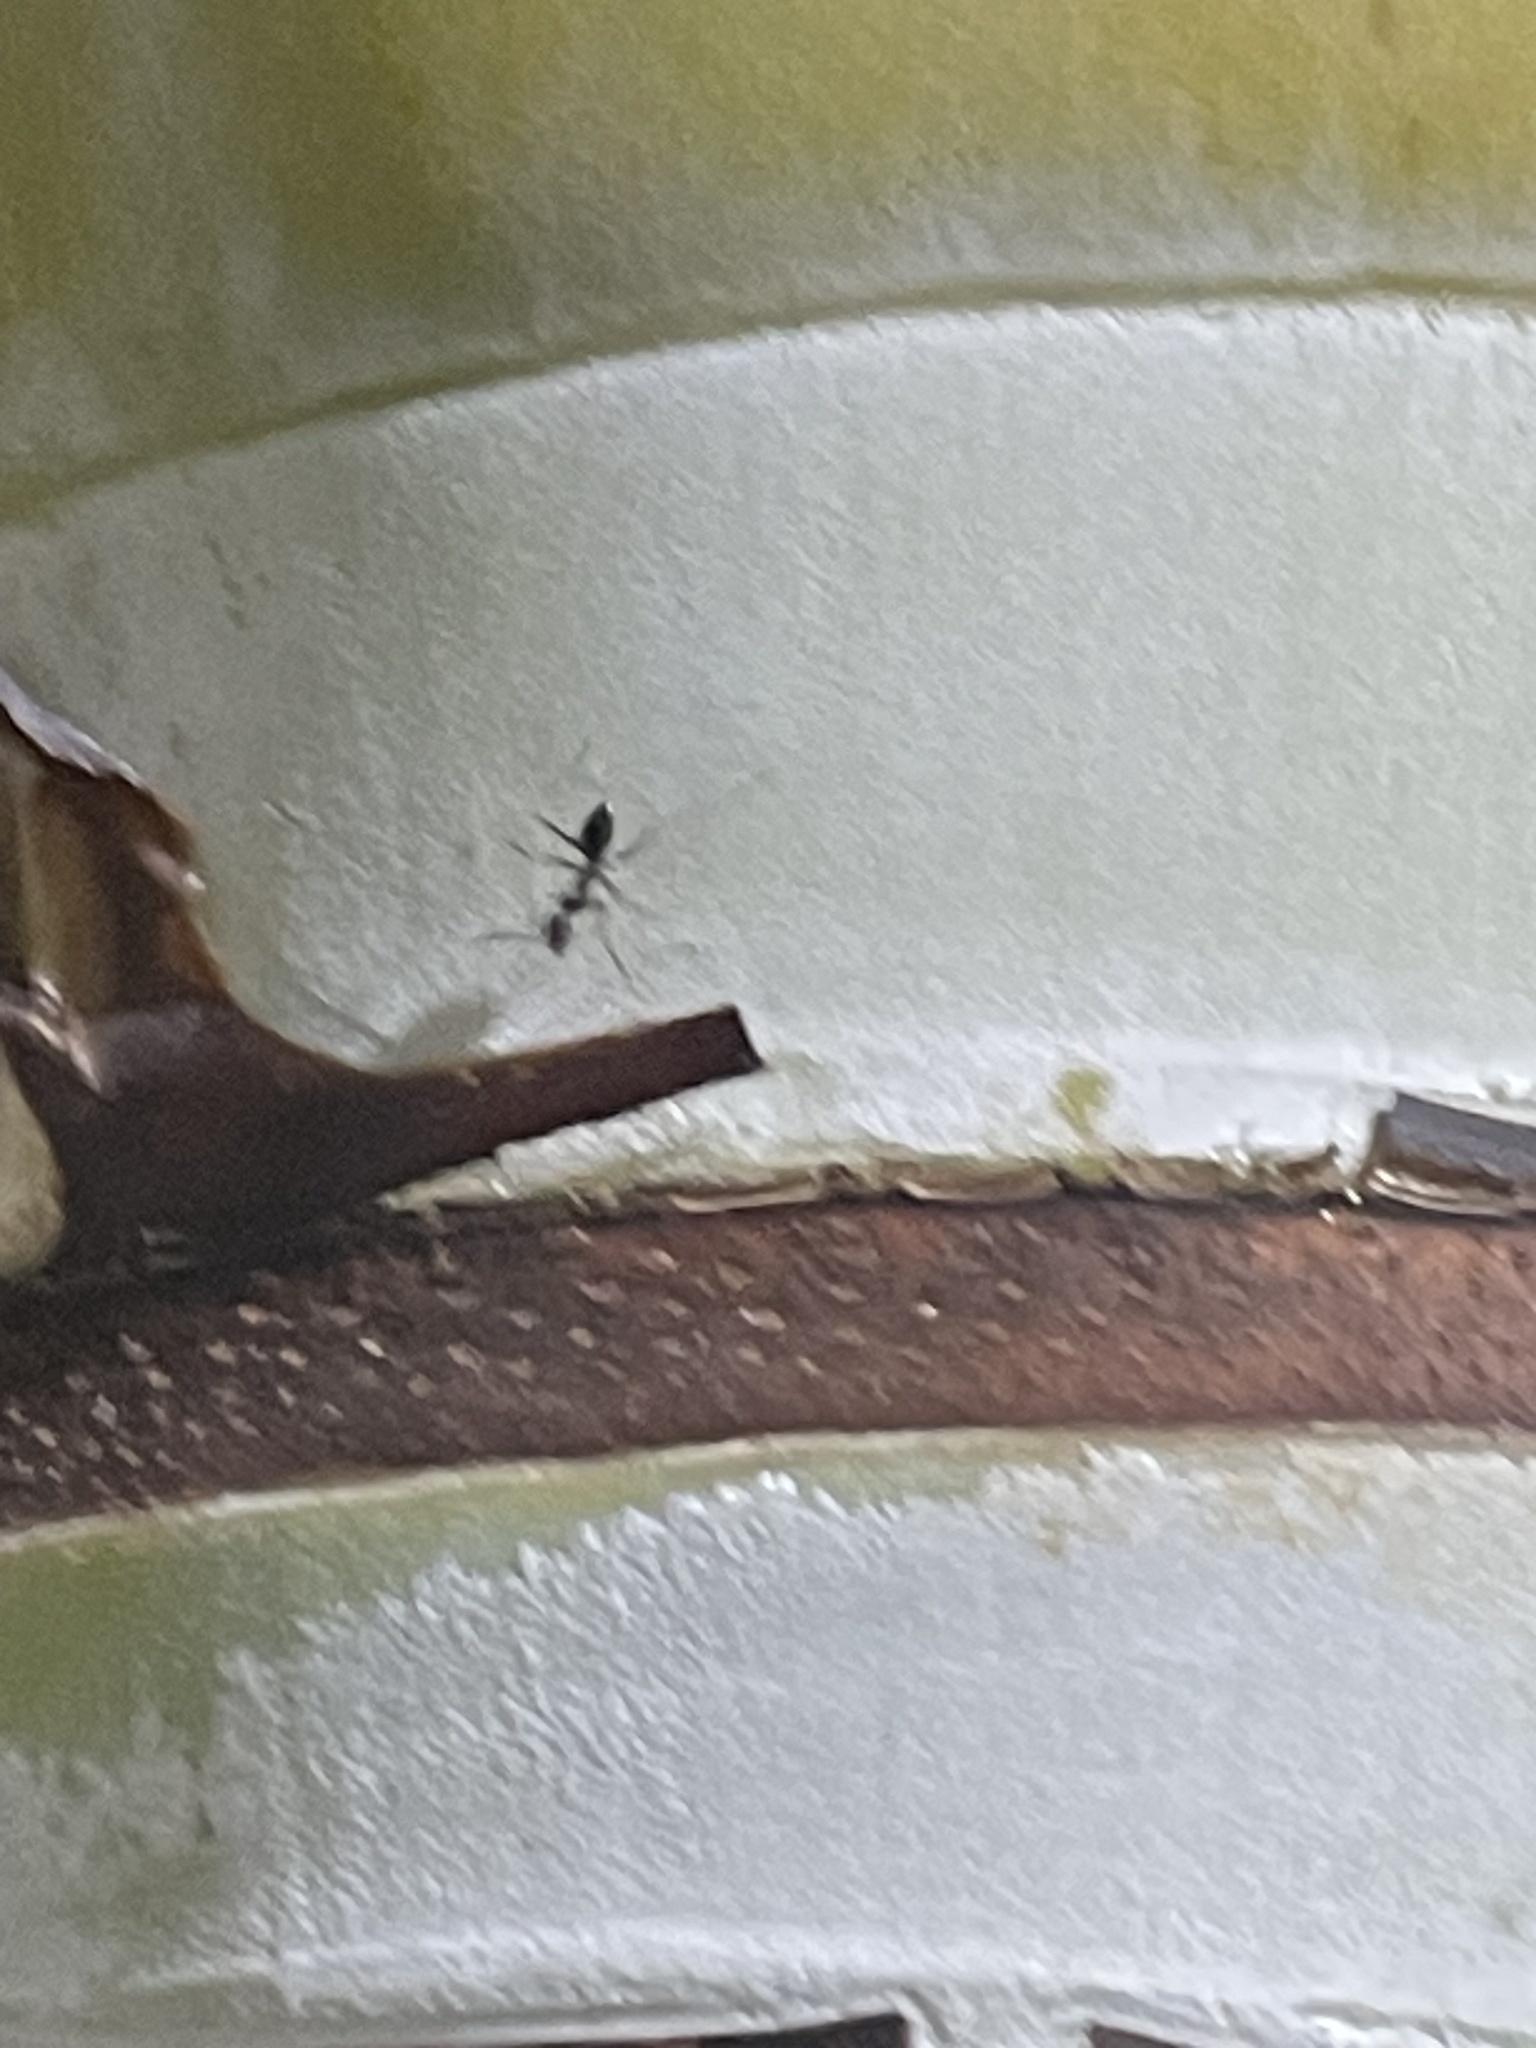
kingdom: Animalia
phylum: Arthropoda
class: Insecta
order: Hymenoptera
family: Formicidae
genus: Paratrechina
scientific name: Paratrechina longicornis
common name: Longhorned crazy ant
